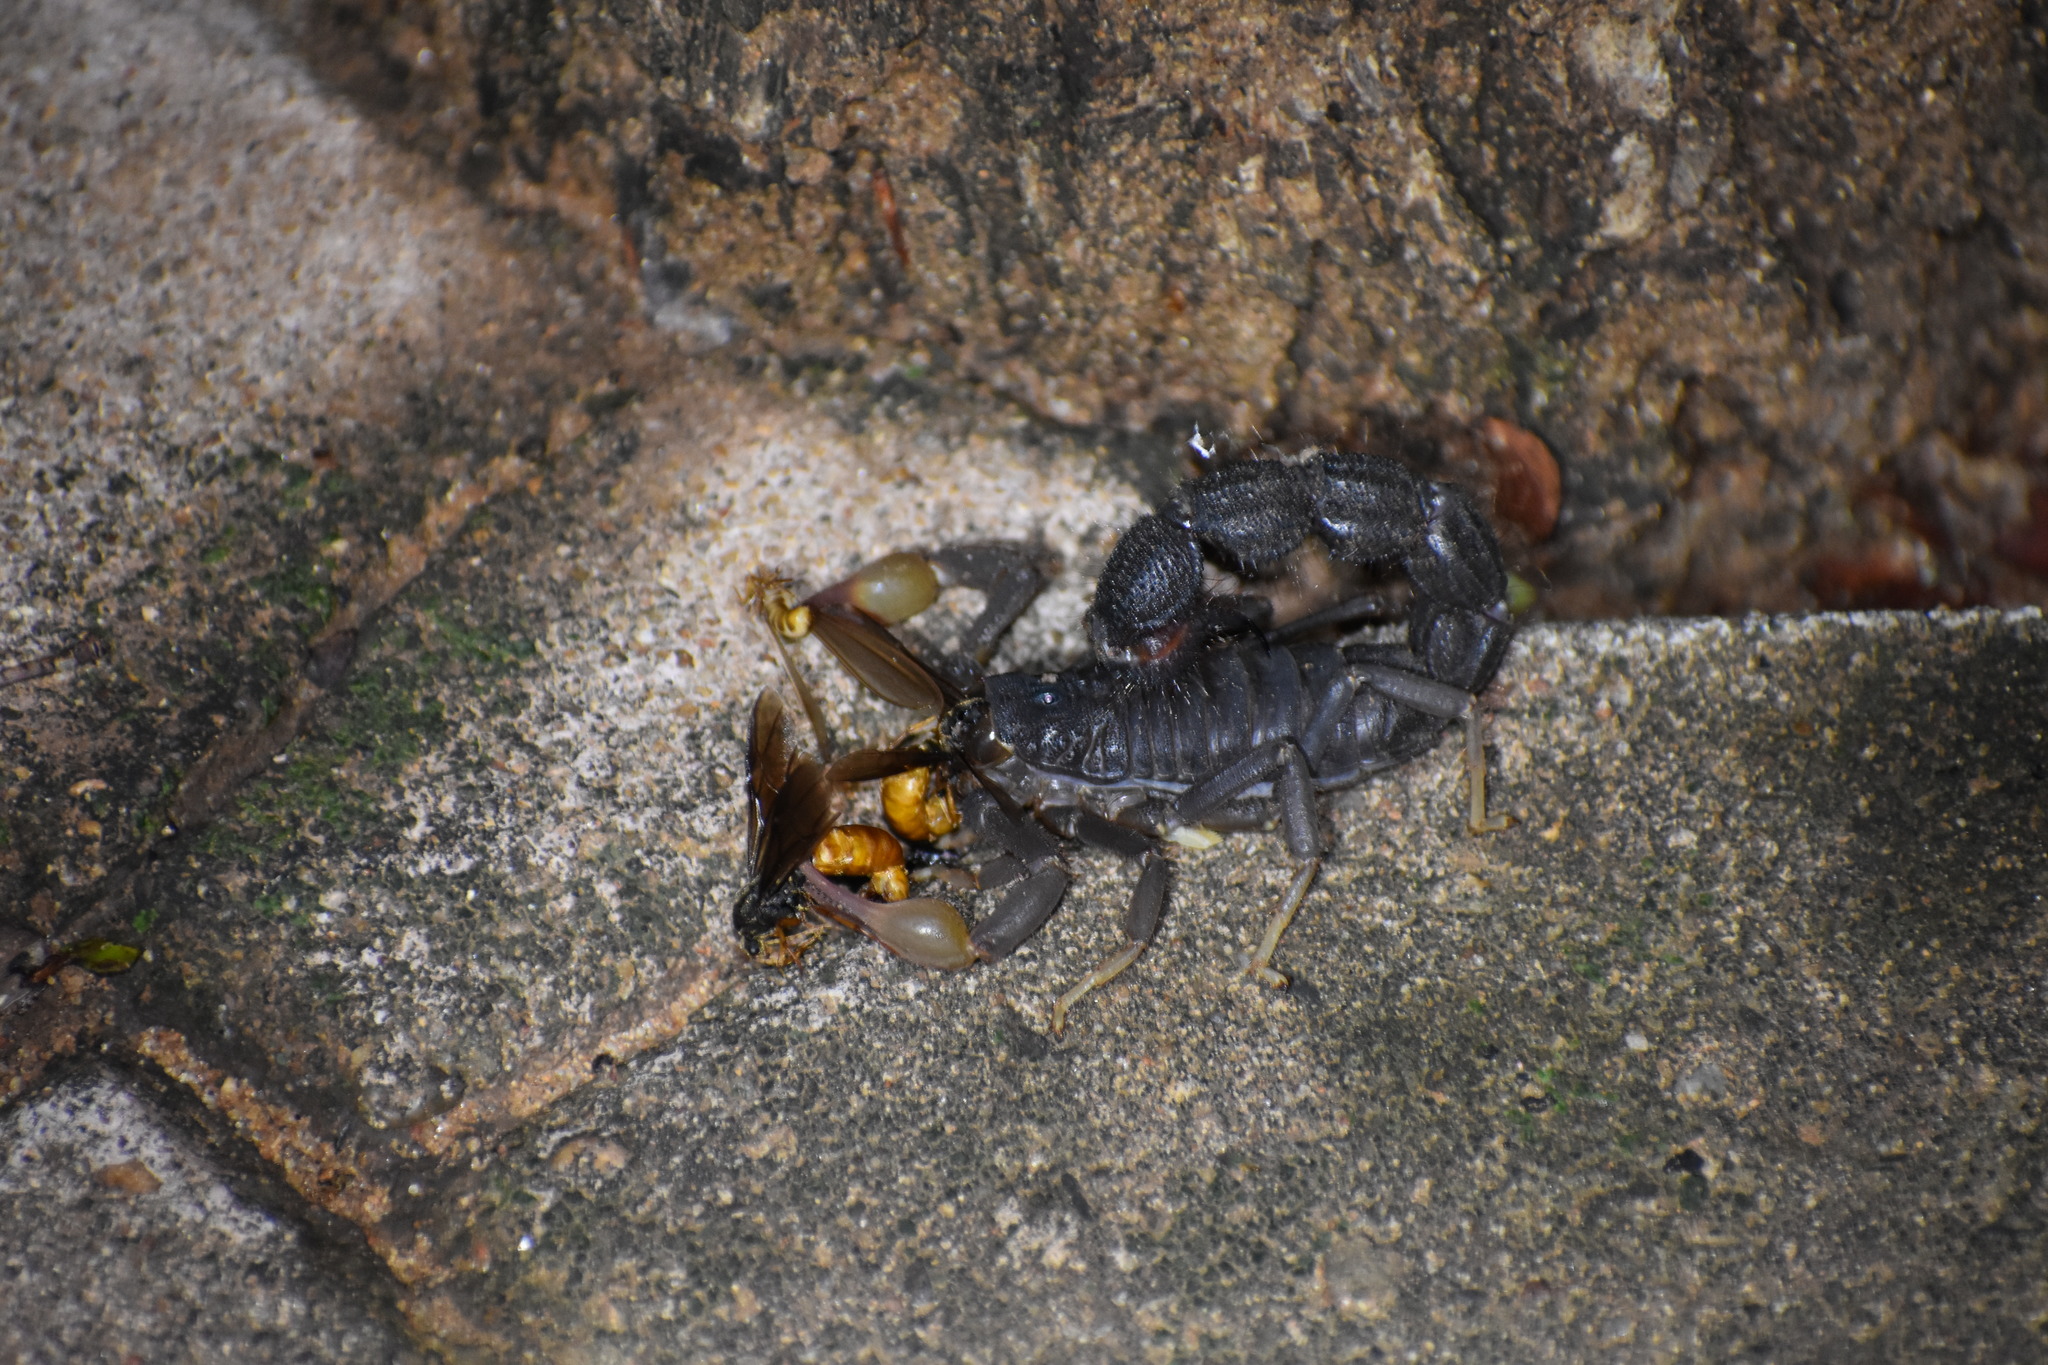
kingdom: Animalia
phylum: Arthropoda
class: Arachnida
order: Scorpiones
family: Buthidae
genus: Parabuthus
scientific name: Parabuthus transvaalicus
